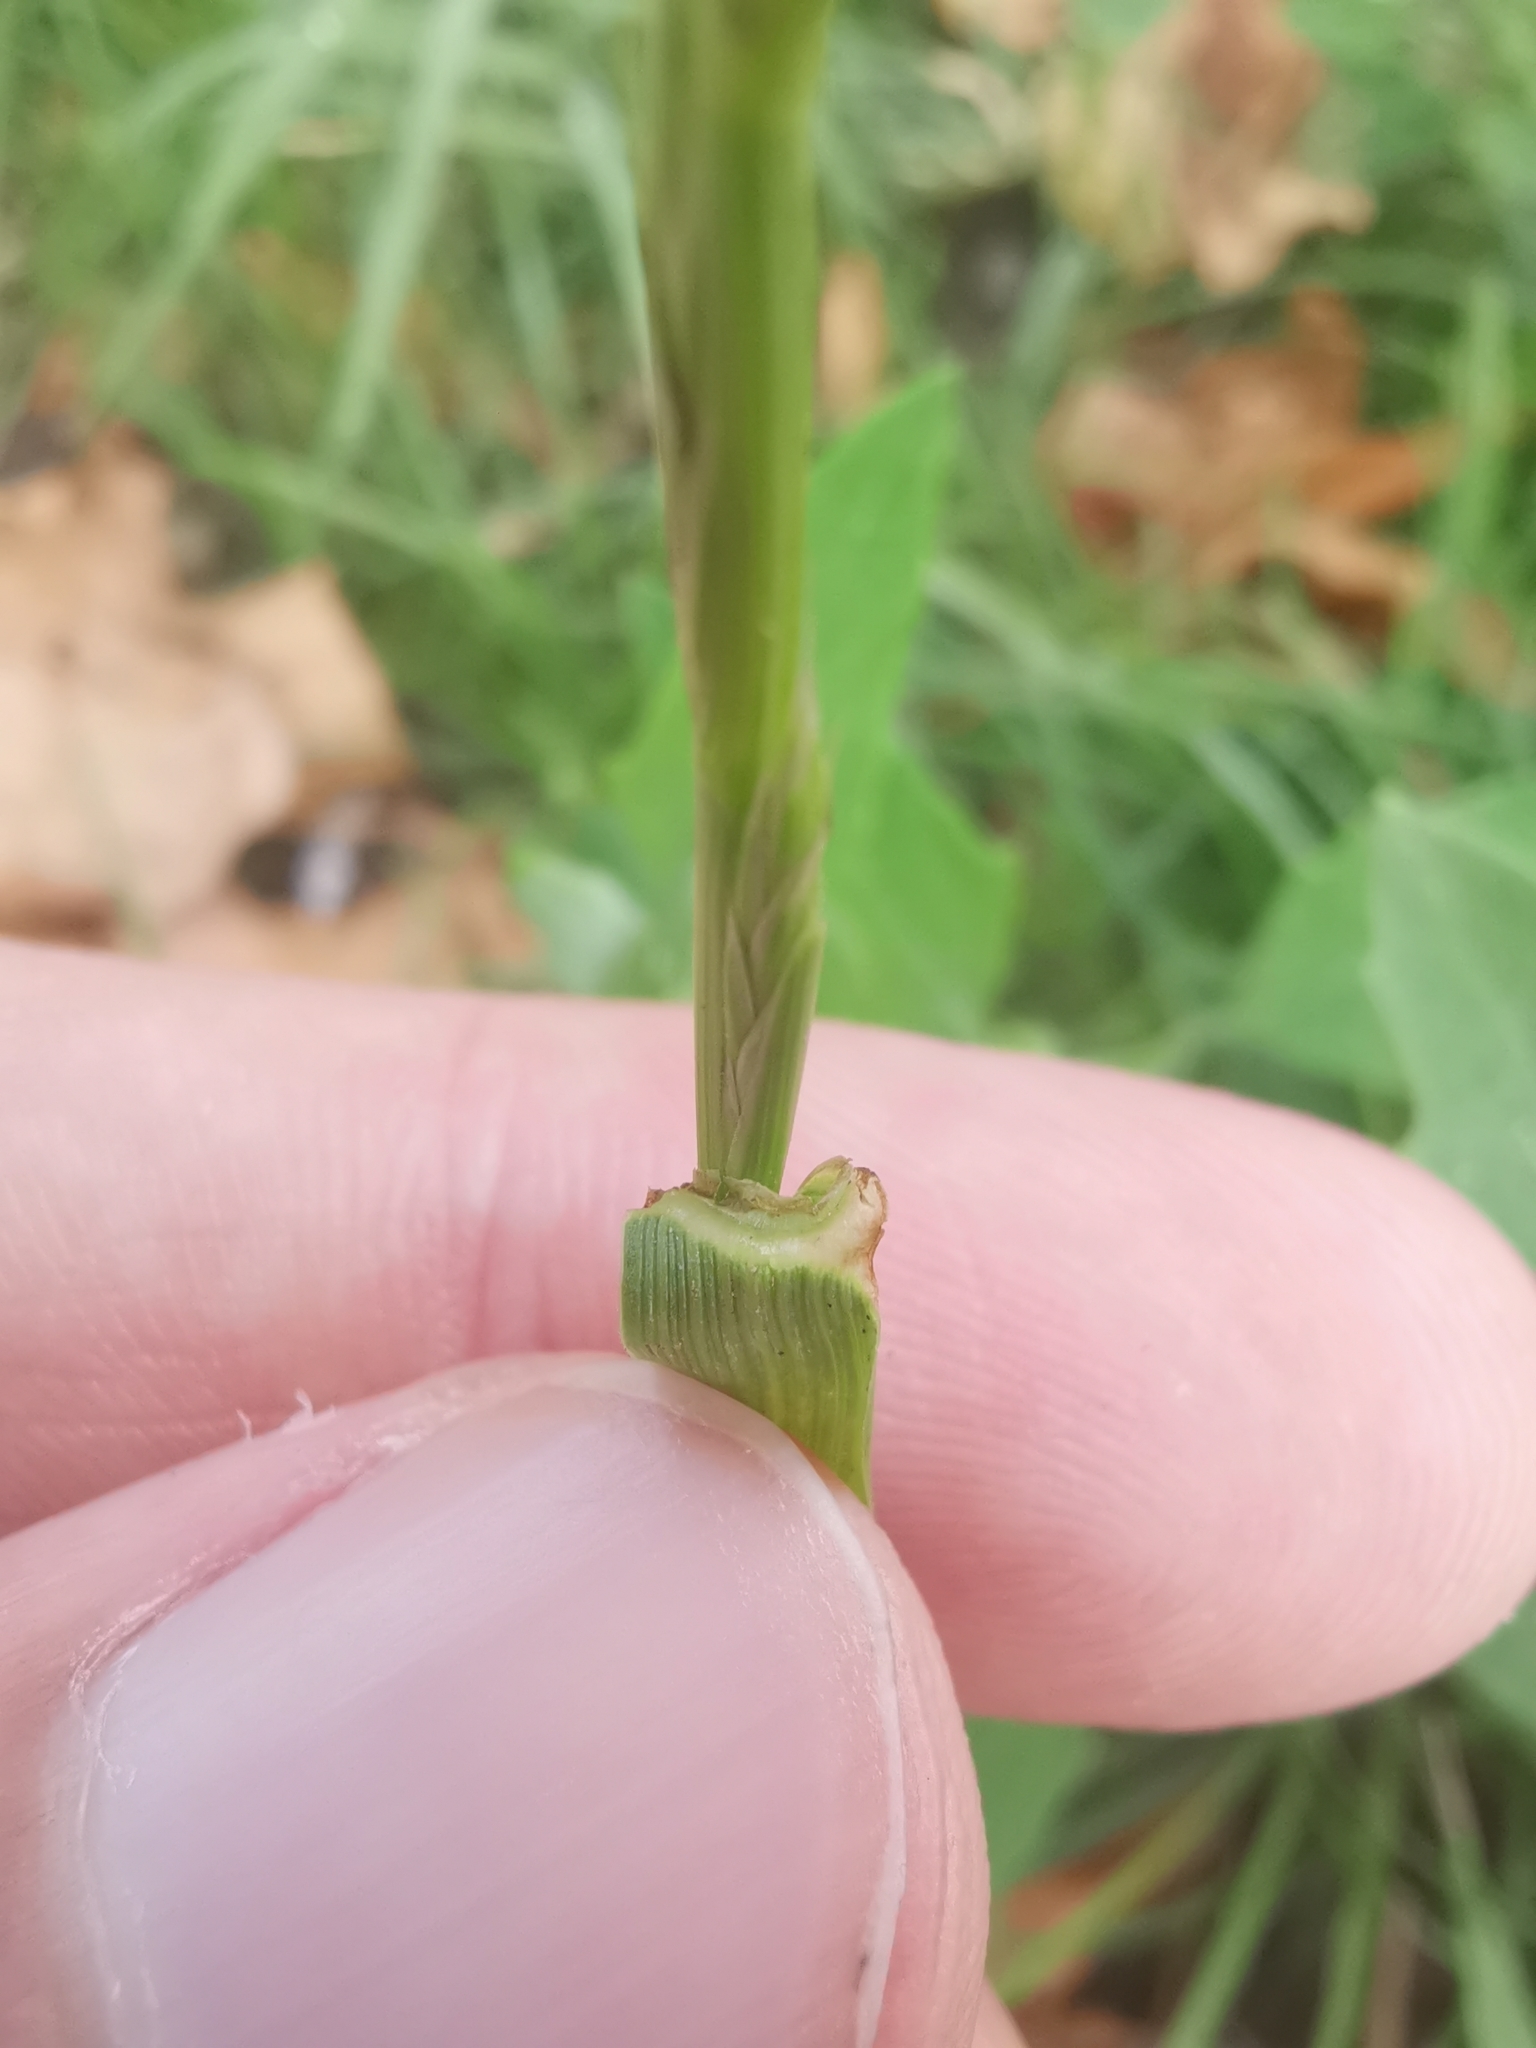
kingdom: Plantae
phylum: Tracheophyta
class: Liliopsida
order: Poales
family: Poaceae
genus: Lolium
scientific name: Lolium multiflorum
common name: Annual ryegrass
